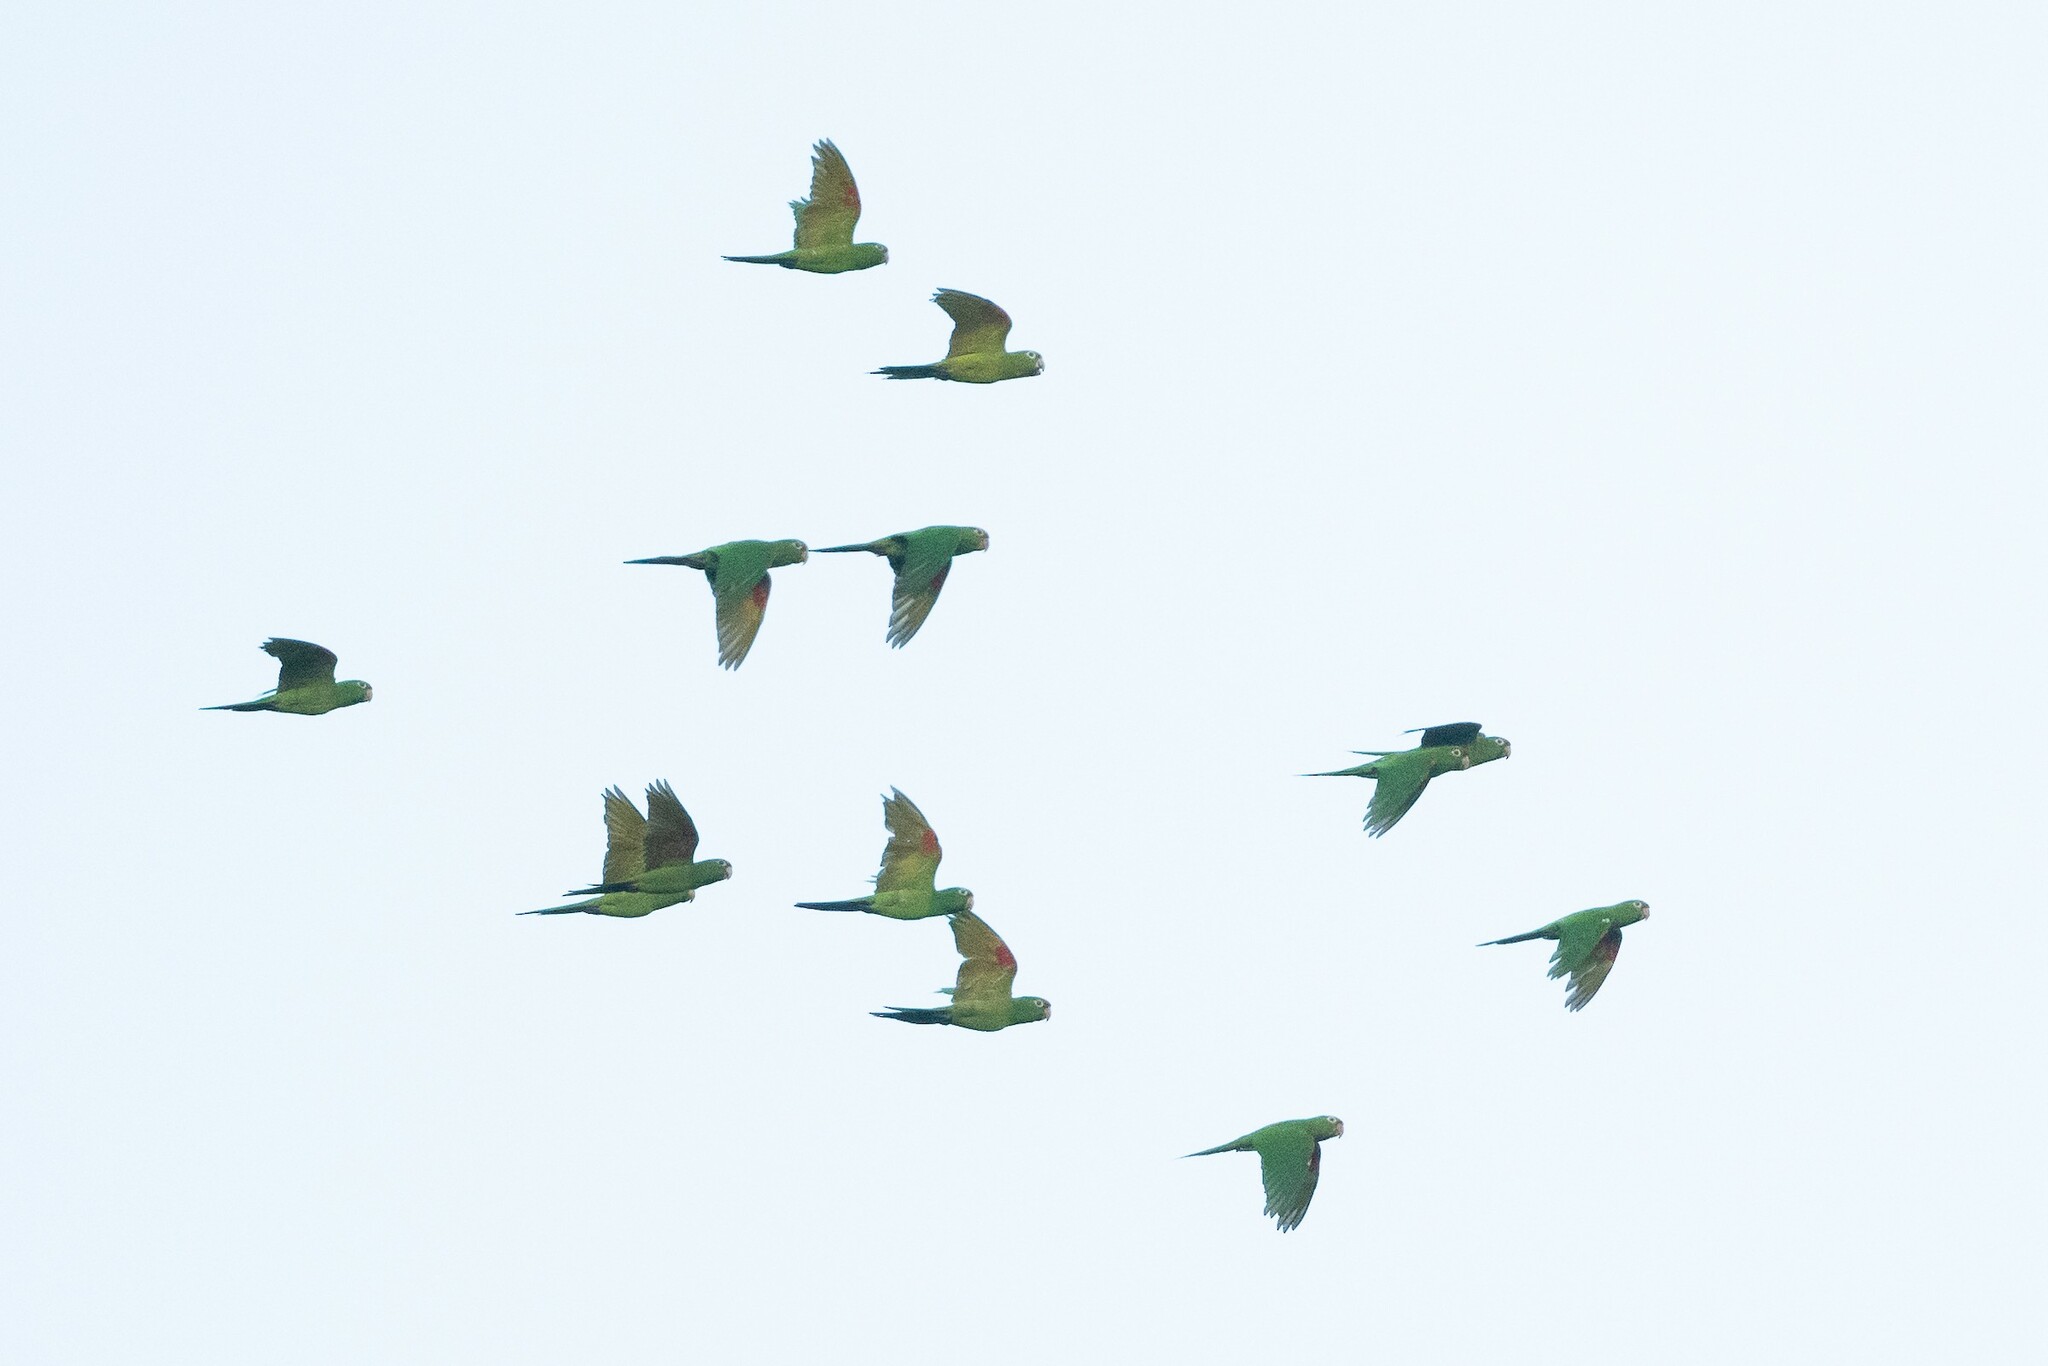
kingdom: Animalia
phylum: Chordata
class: Aves
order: Psittaciformes
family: Psittacidae
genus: Aratinga
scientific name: Aratinga finschi
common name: Crimson-fronted parakeet
